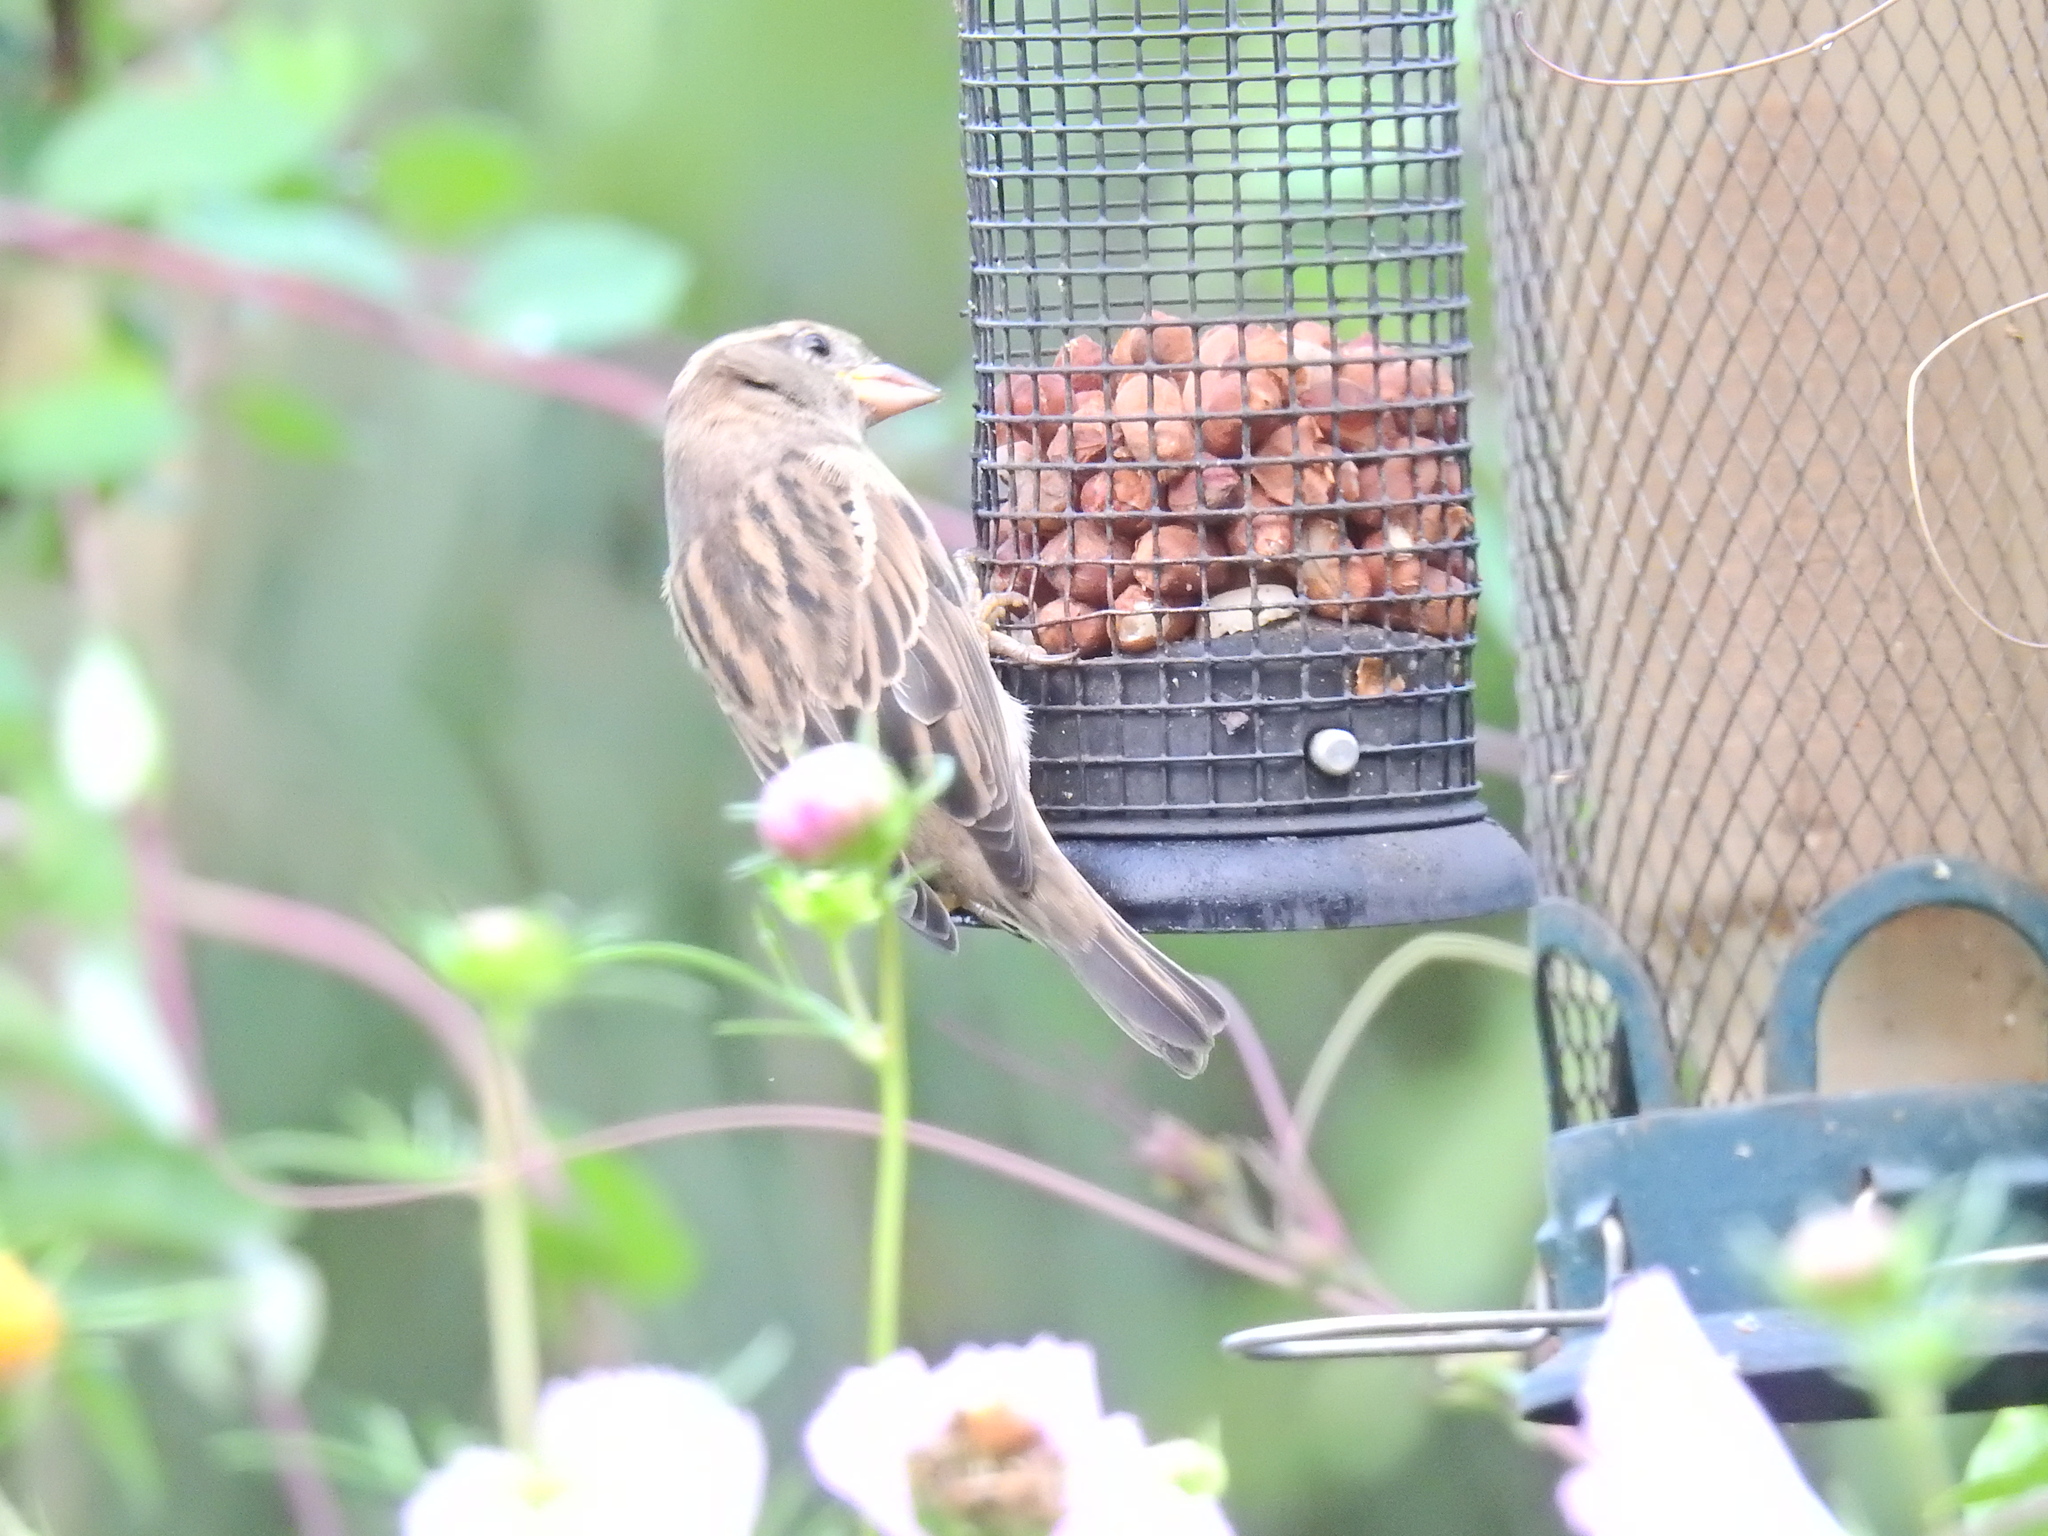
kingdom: Animalia
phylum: Chordata
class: Aves
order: Passeriformes
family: Passeridae
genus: Passer
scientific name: Passer domesticus
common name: House sparrow
